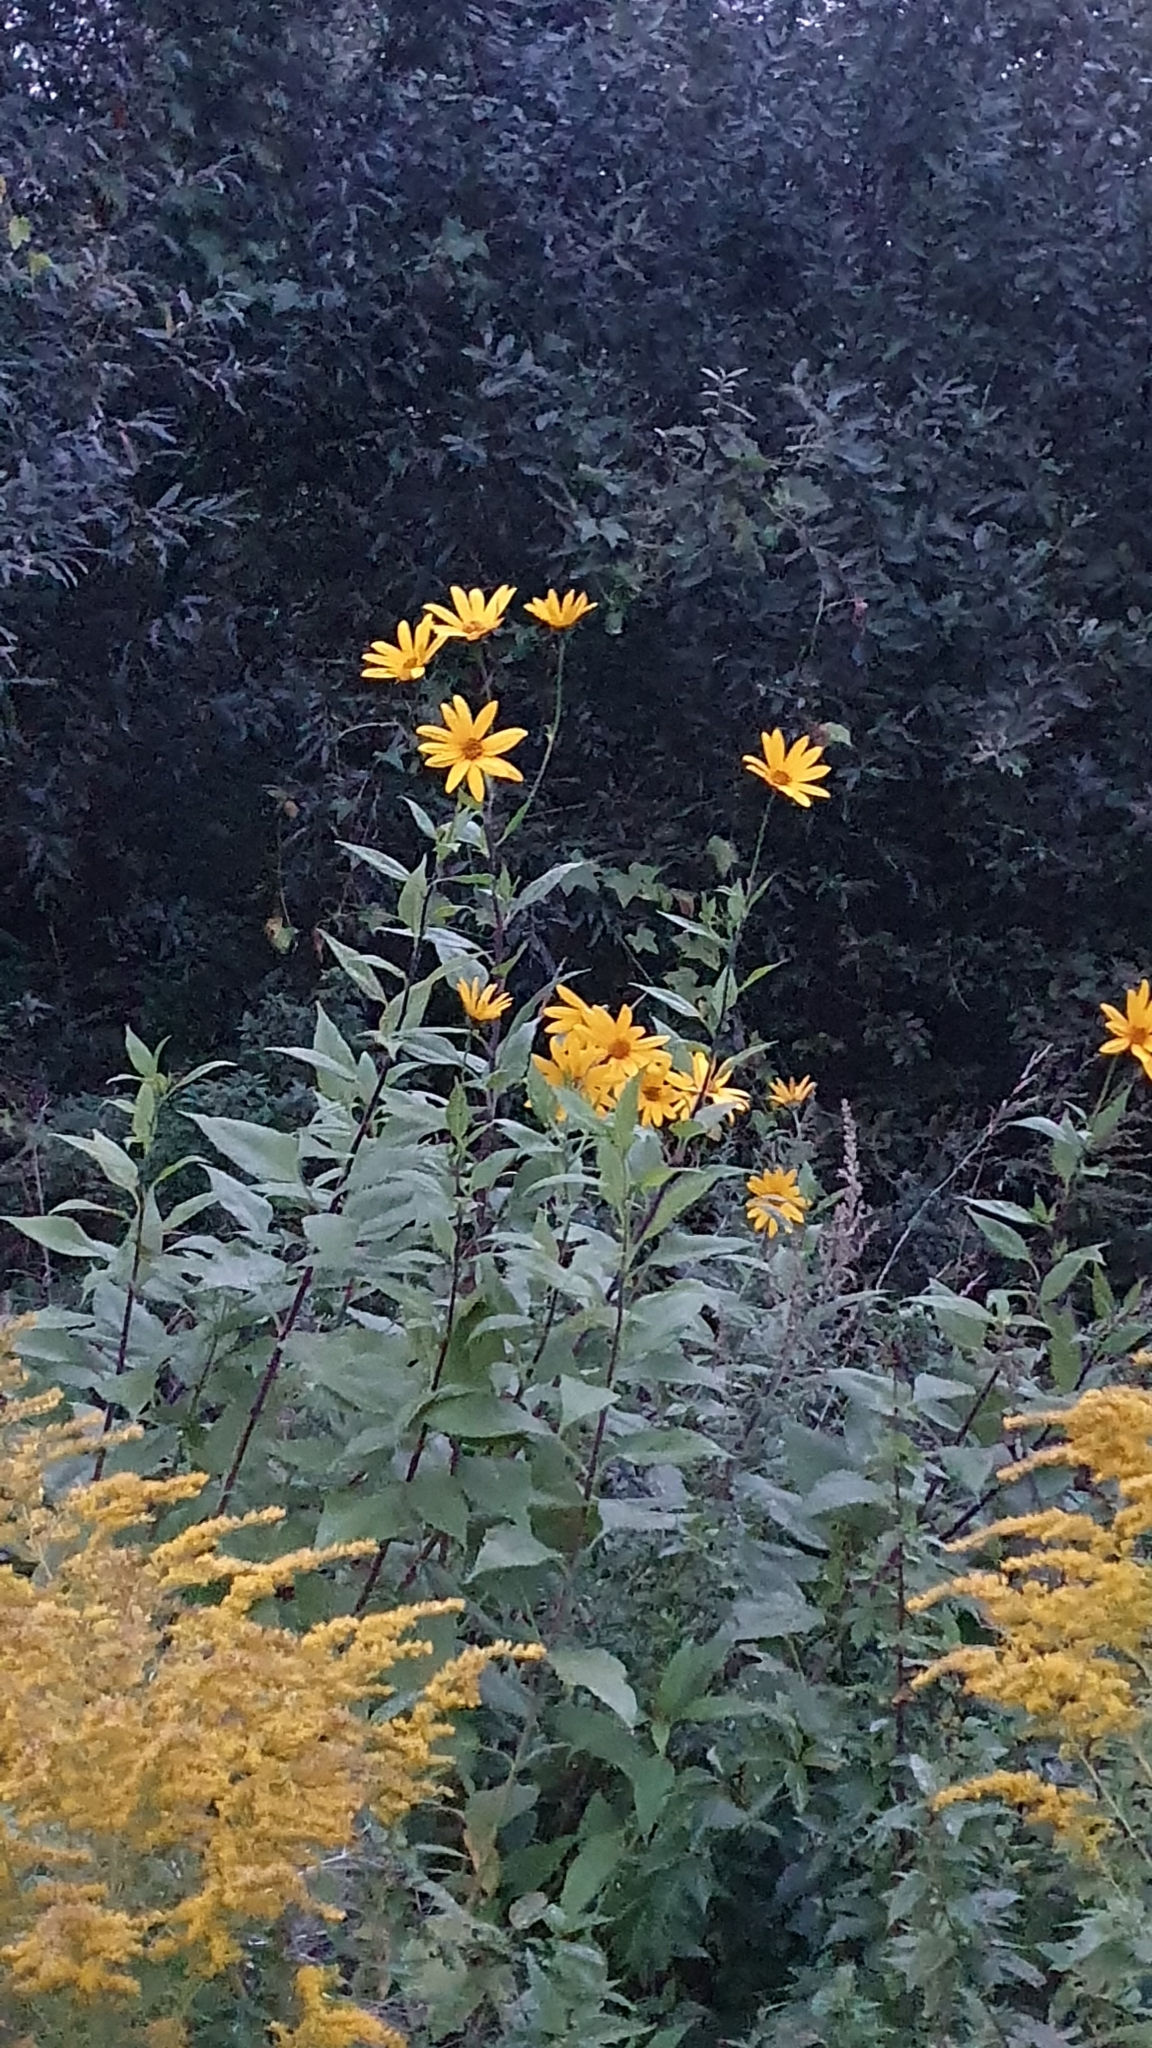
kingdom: Plantae
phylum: Tracheophyta
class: Magnoliopsida
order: Asterales
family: Asteraceae
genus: Helianthus
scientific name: Helianthus tuberosus
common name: Jerusalem artichoke
